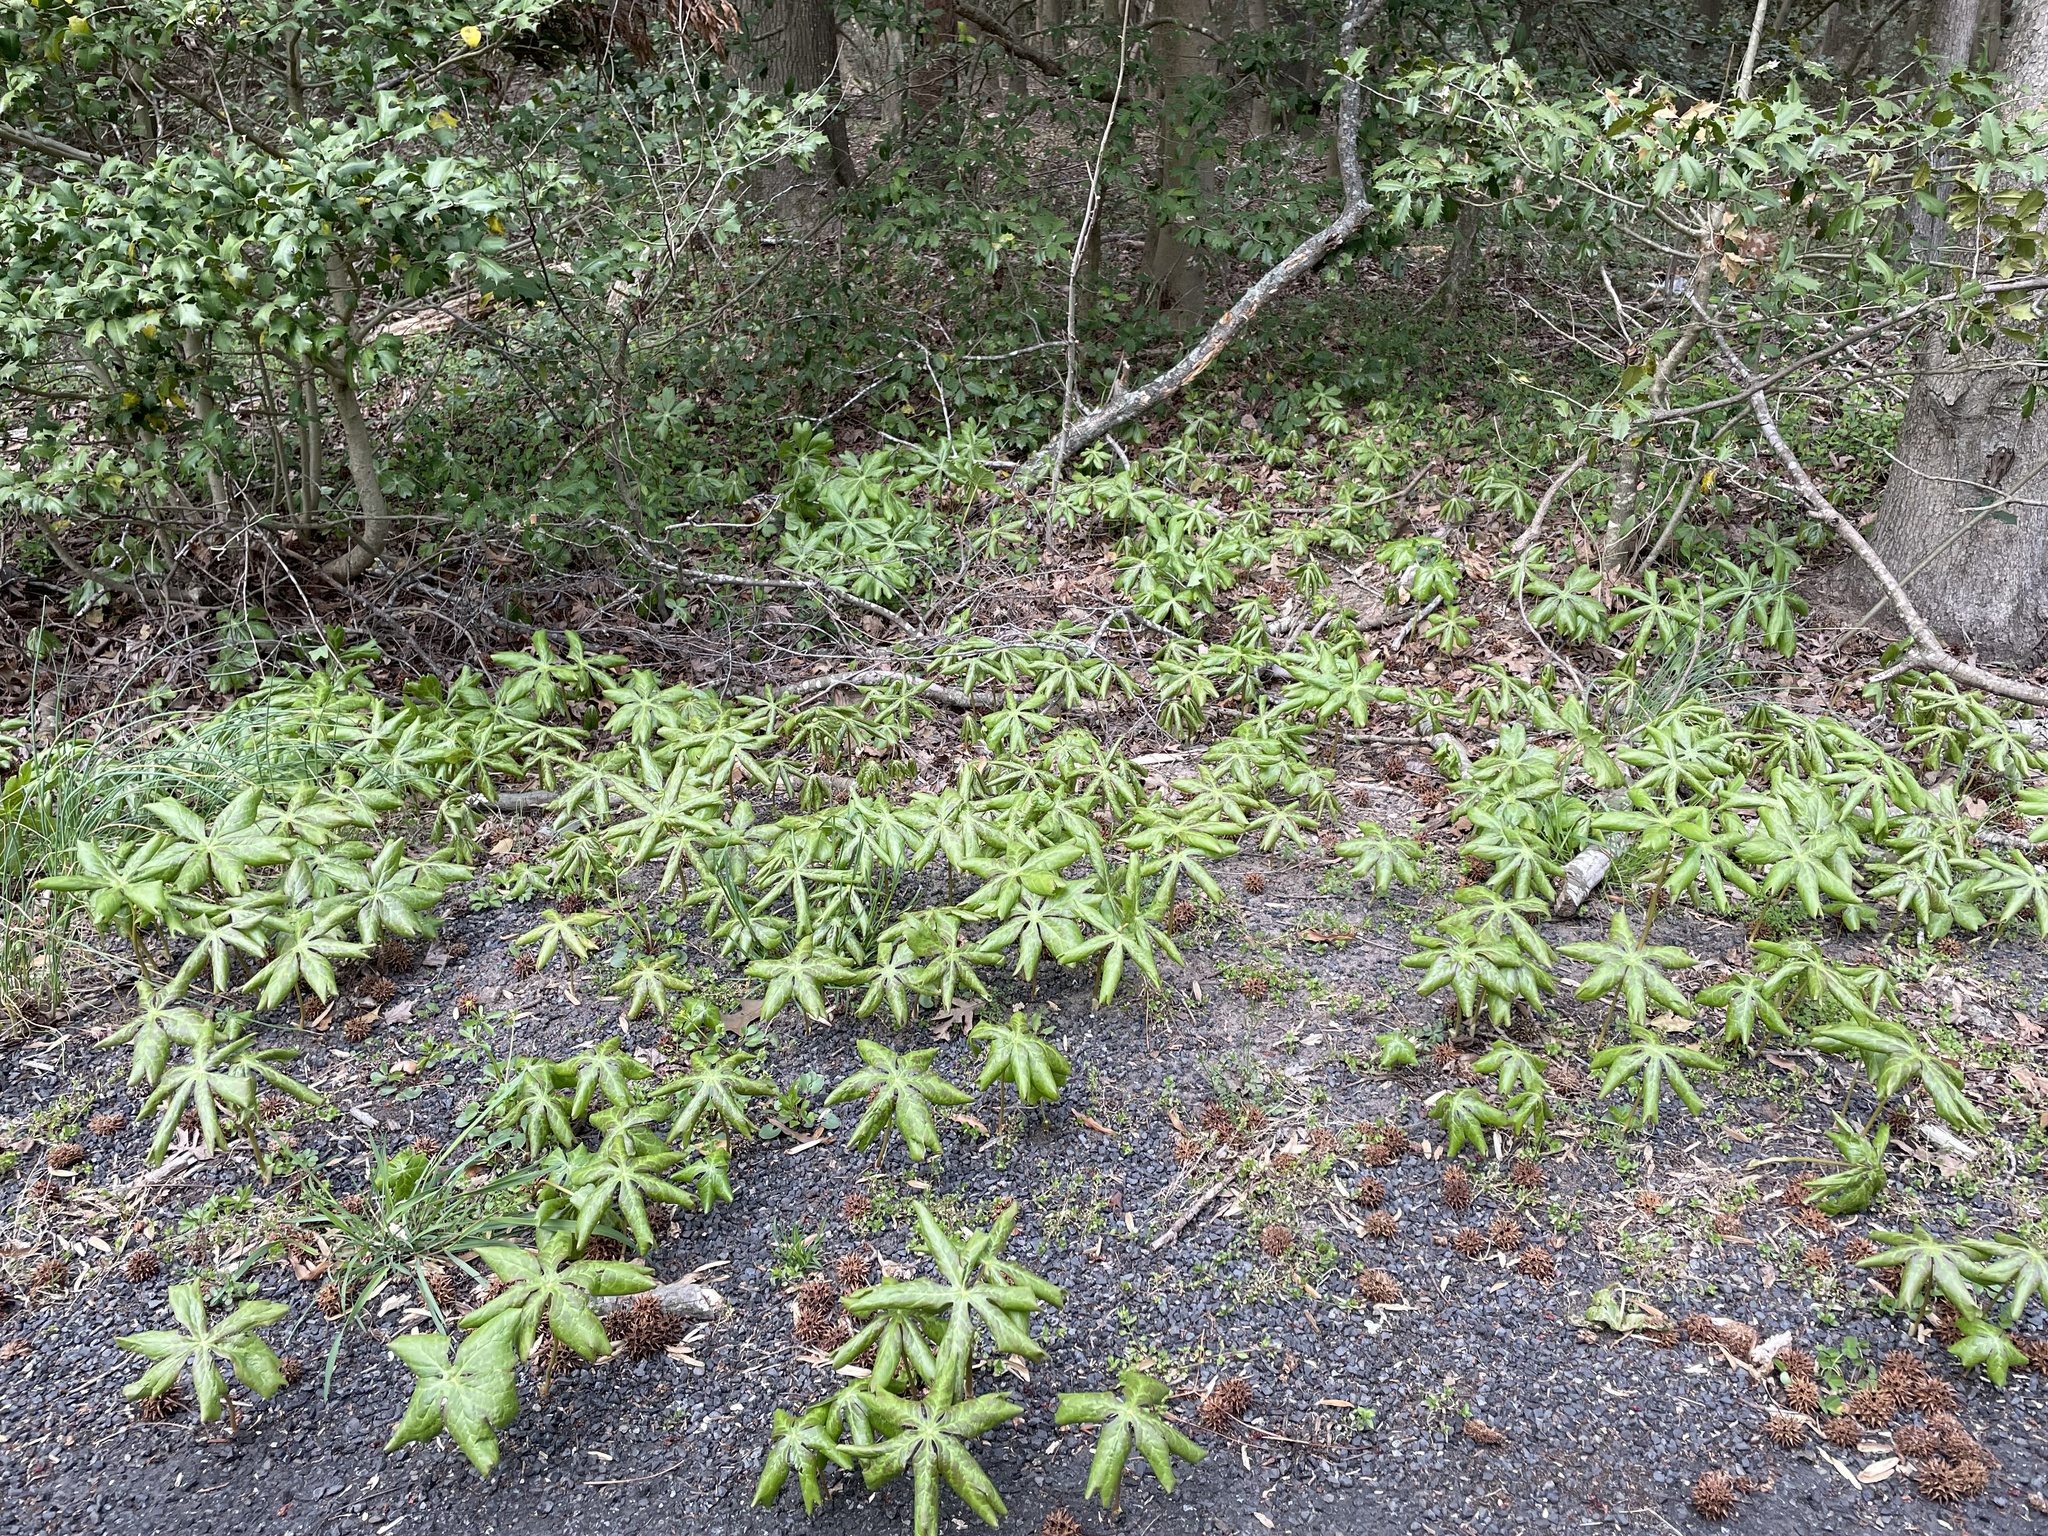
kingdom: Plantae
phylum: Tracheophyta
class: Magnoliopsida
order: Ranunculales
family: Berberidaceae
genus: Podophyllum
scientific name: Podophyllum peltatum
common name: Wild mandrake
